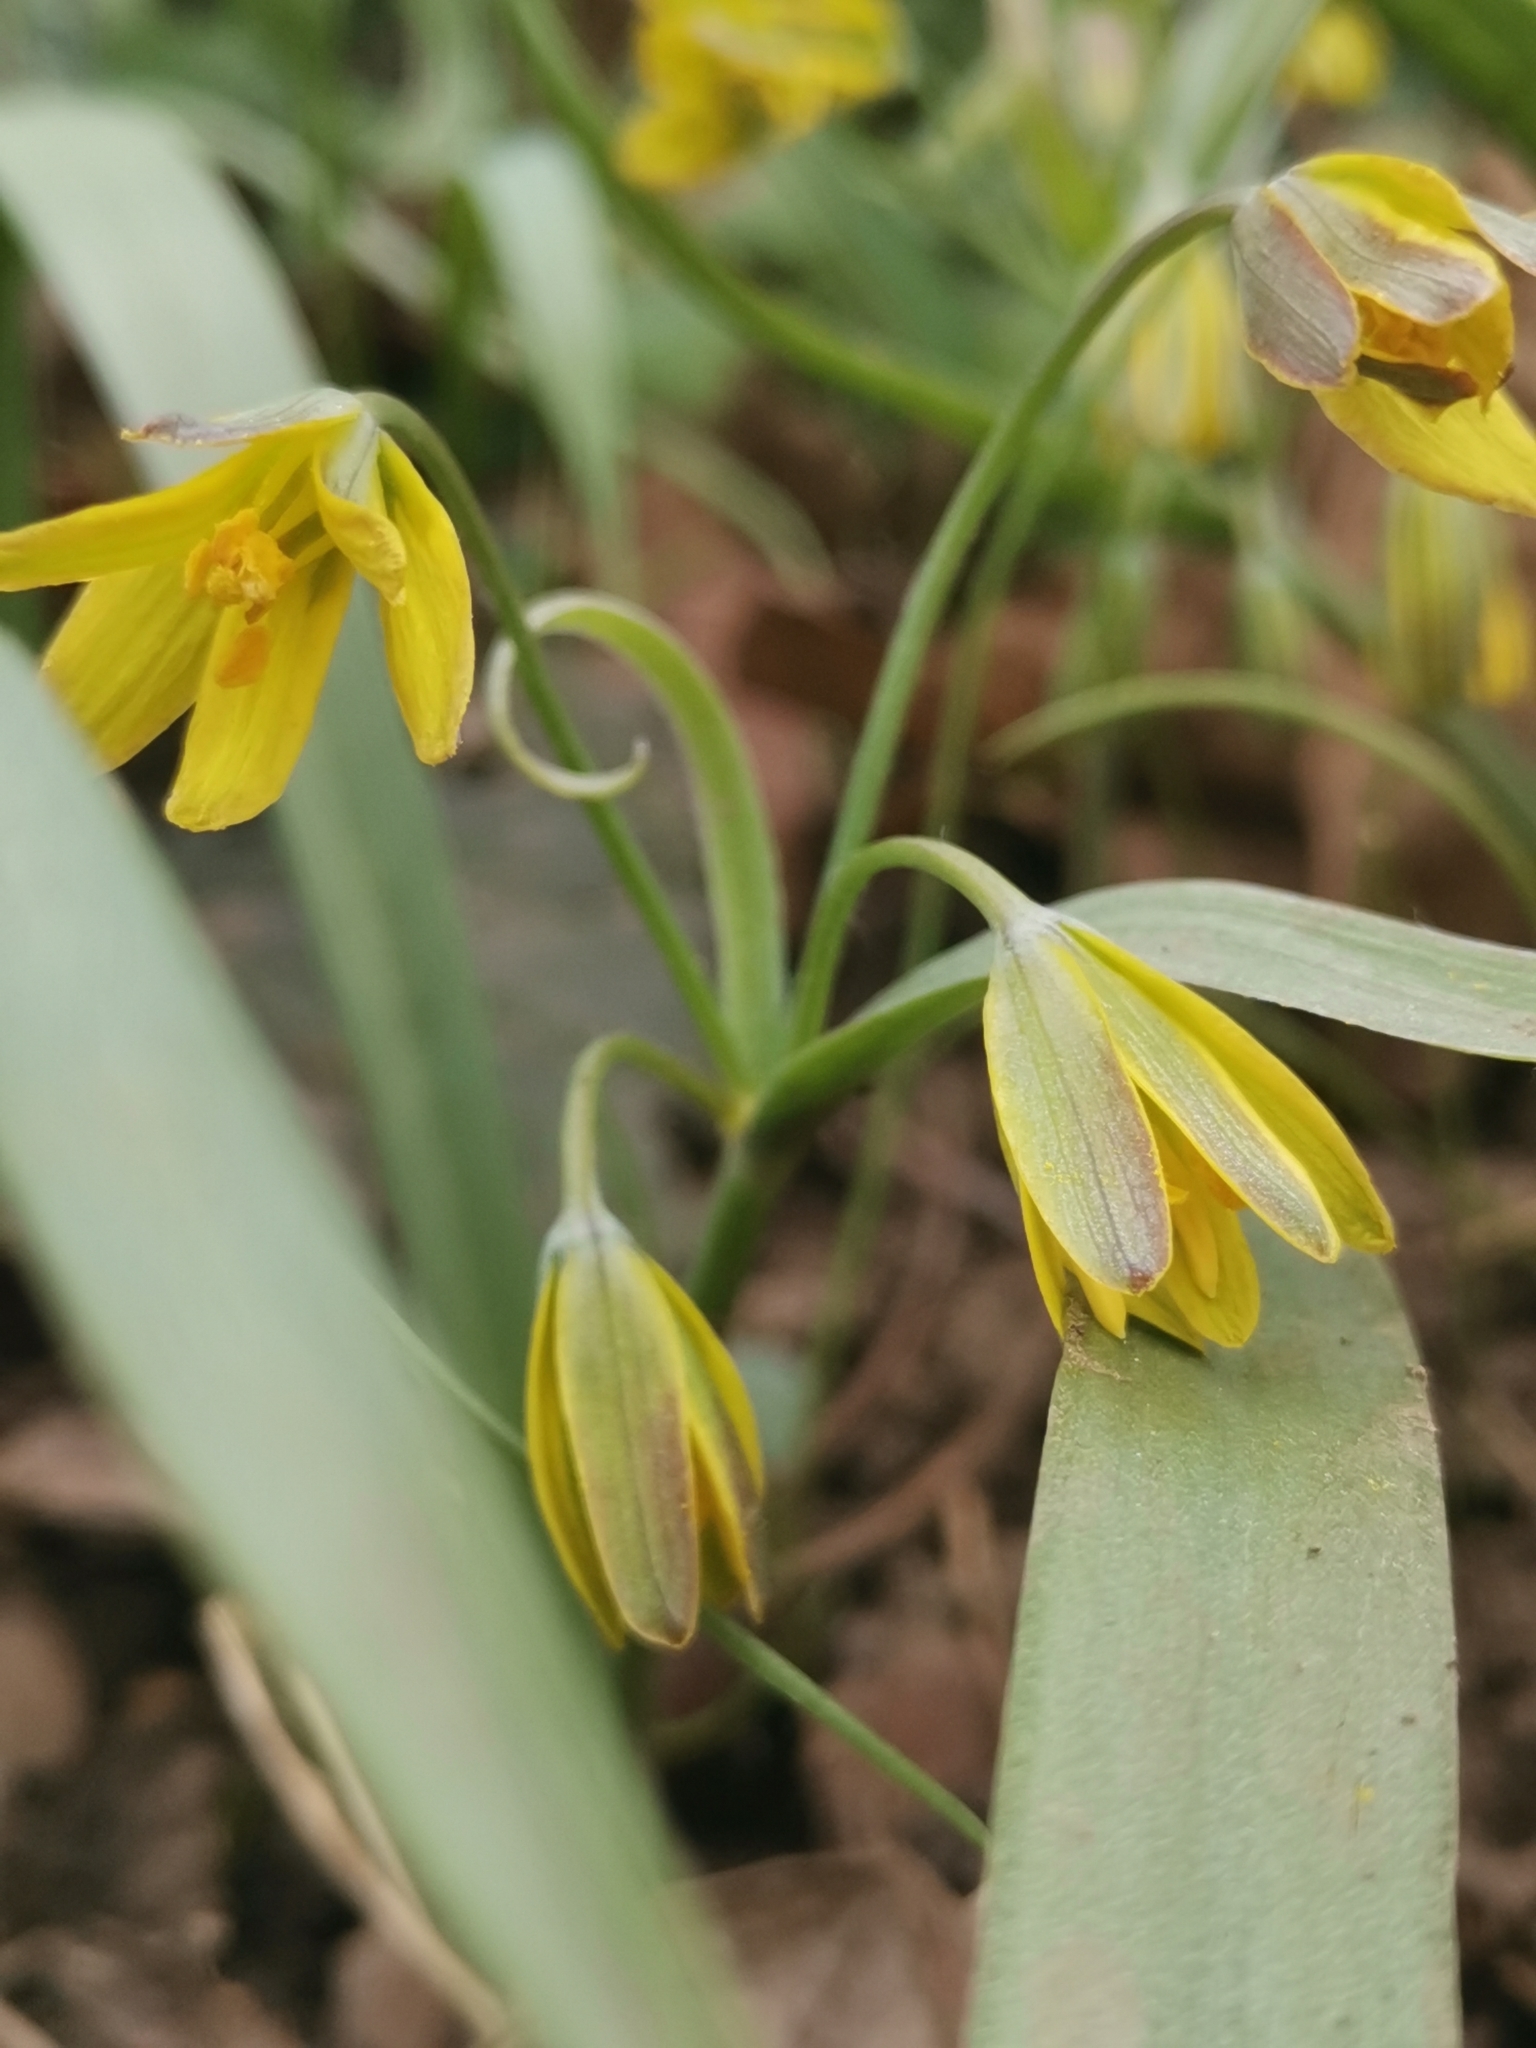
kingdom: Plantae
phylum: Tracheophyta
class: Liliopsida
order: Liliales
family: Liliaceae
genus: Gagea
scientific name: Gagea lutea
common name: Yellow star-of-bethlehem
